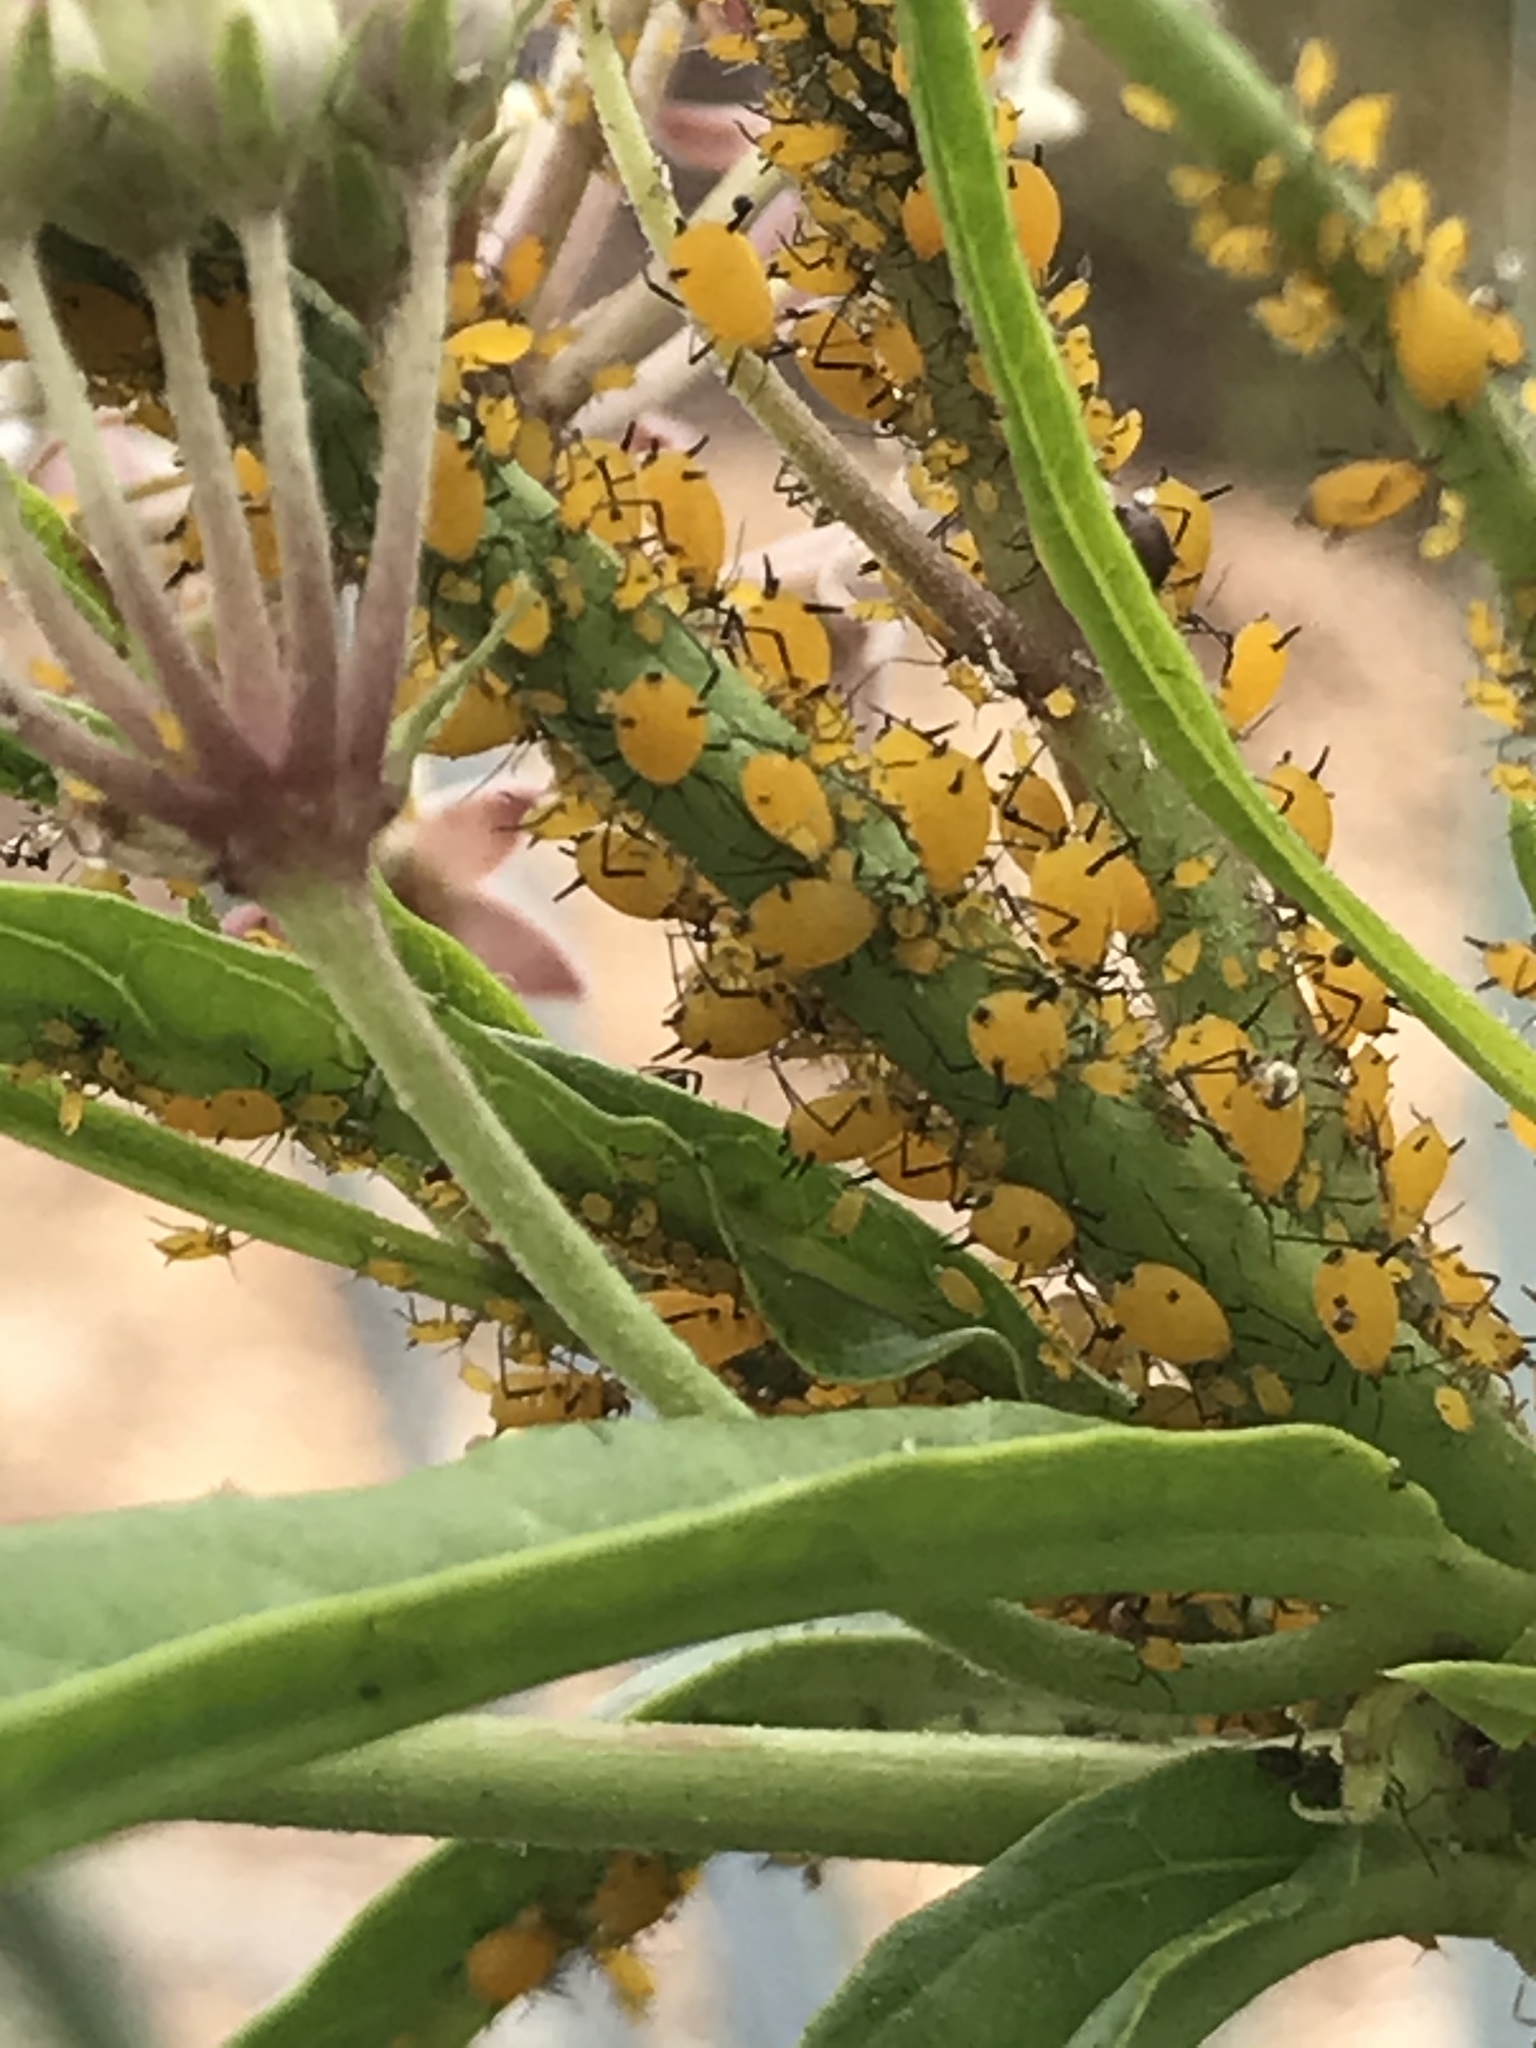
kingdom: Animalia
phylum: Arthropoda
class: Insecta
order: Hemiptera
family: Aphididae
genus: Aphis
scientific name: Aphis nerii
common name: Oleander aphid
